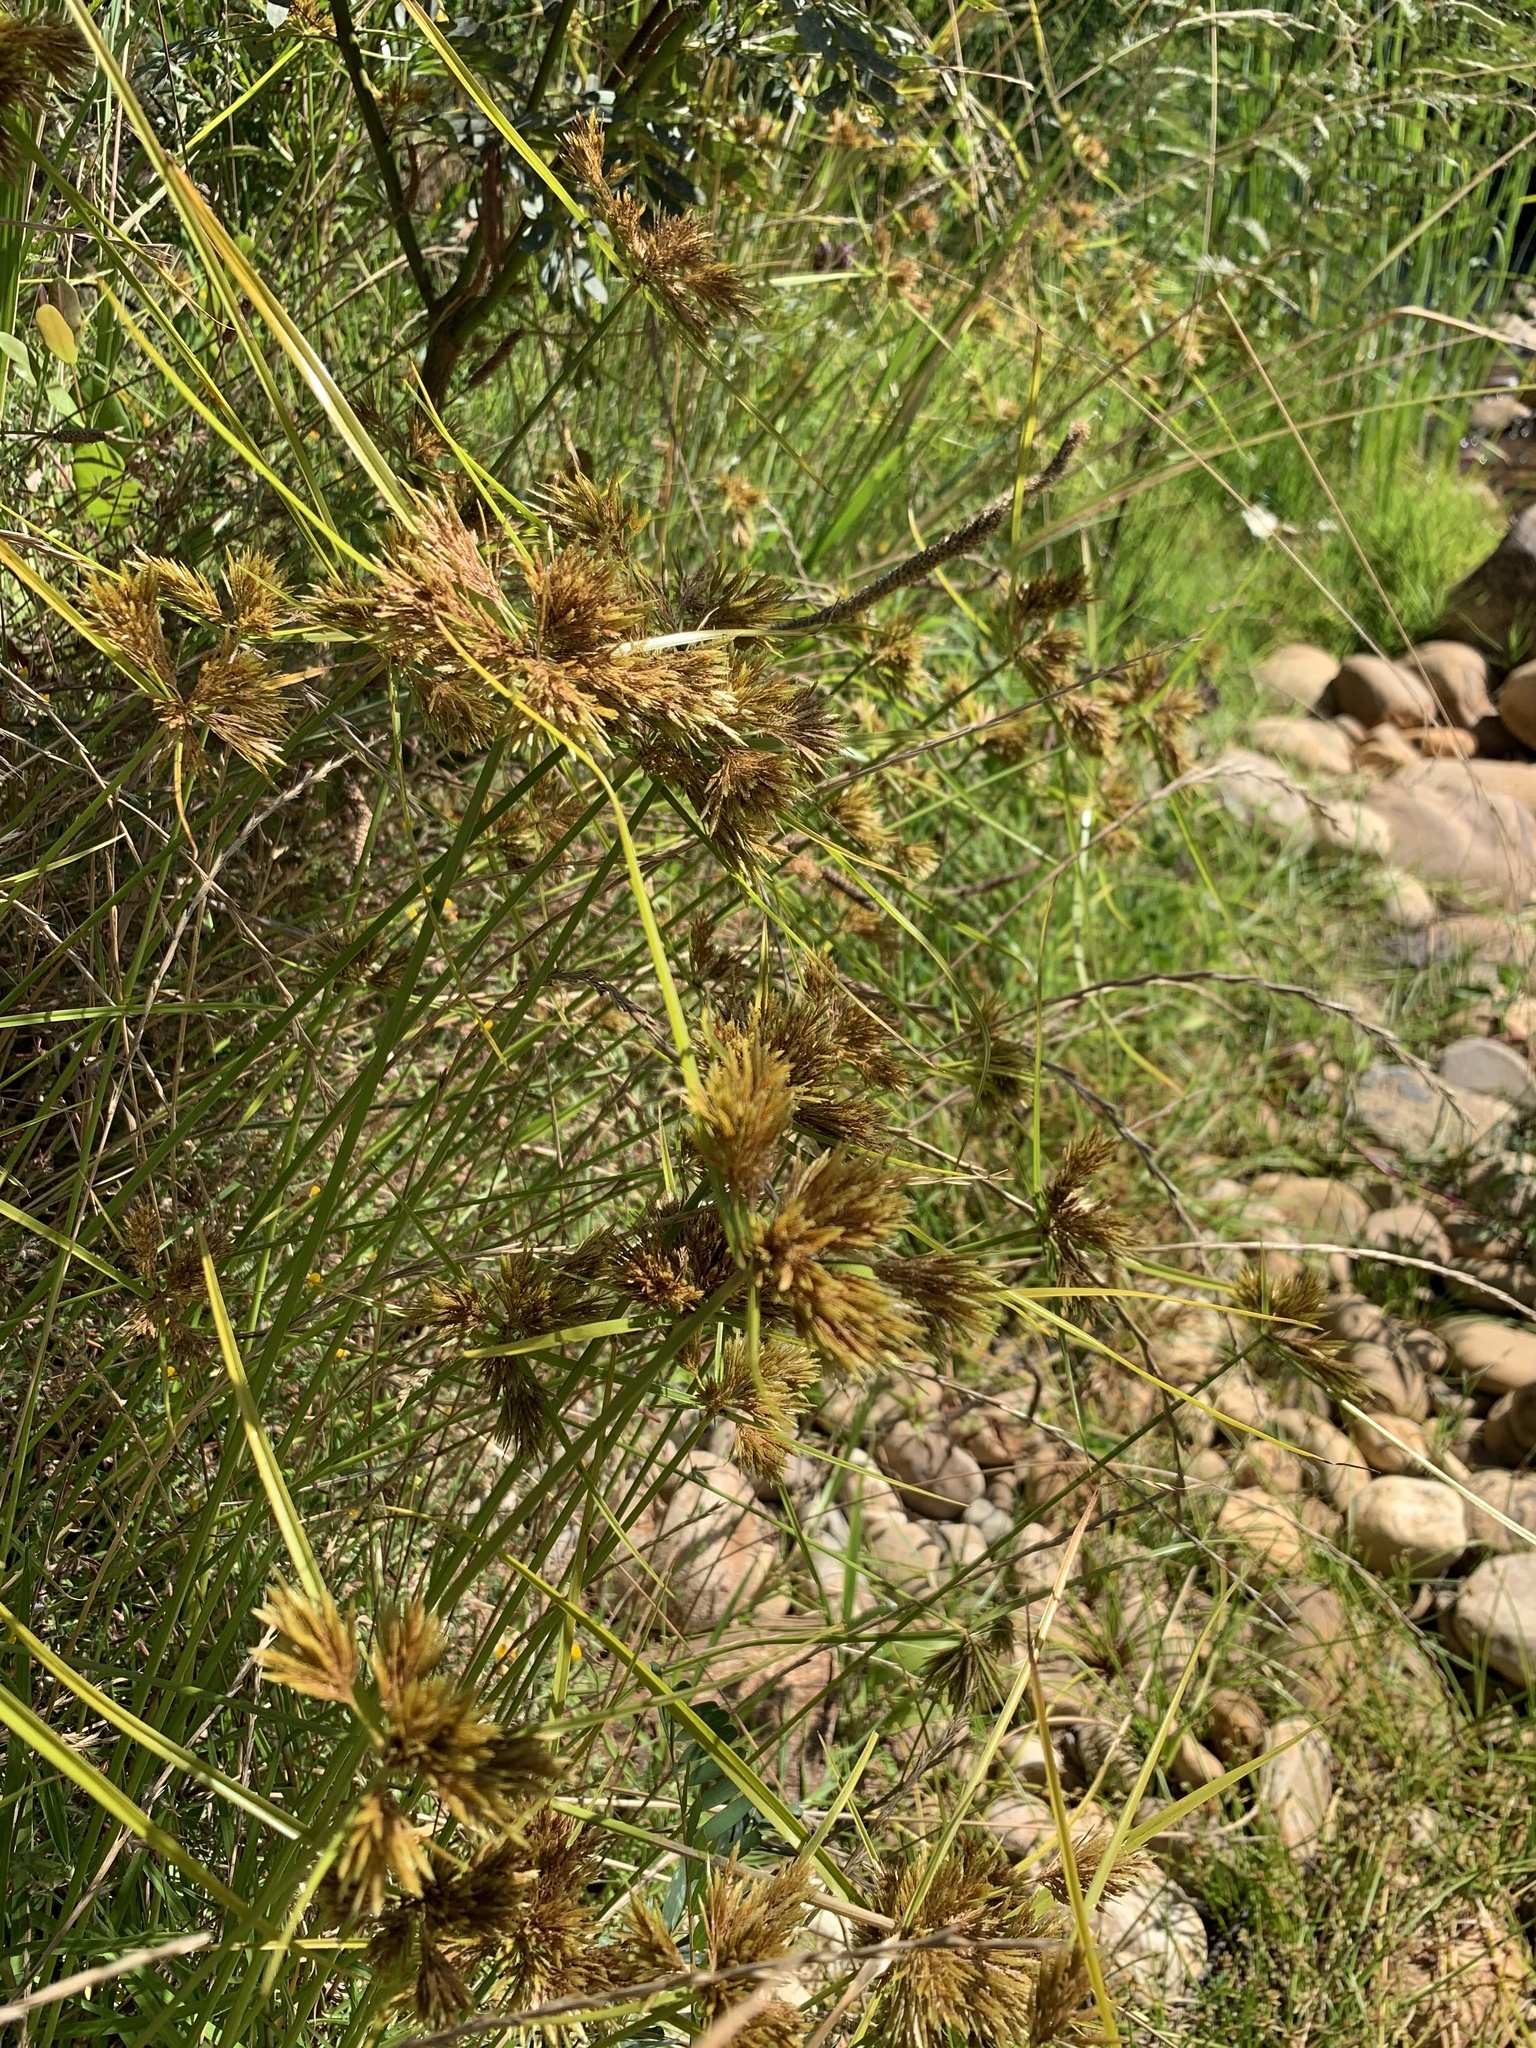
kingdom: Plantae
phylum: Tracheophyta
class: Liliopsida
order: Poales
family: Cyperaceae
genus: Cyperus
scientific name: Cyperus polystachyos
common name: Bunchy flat sedge
